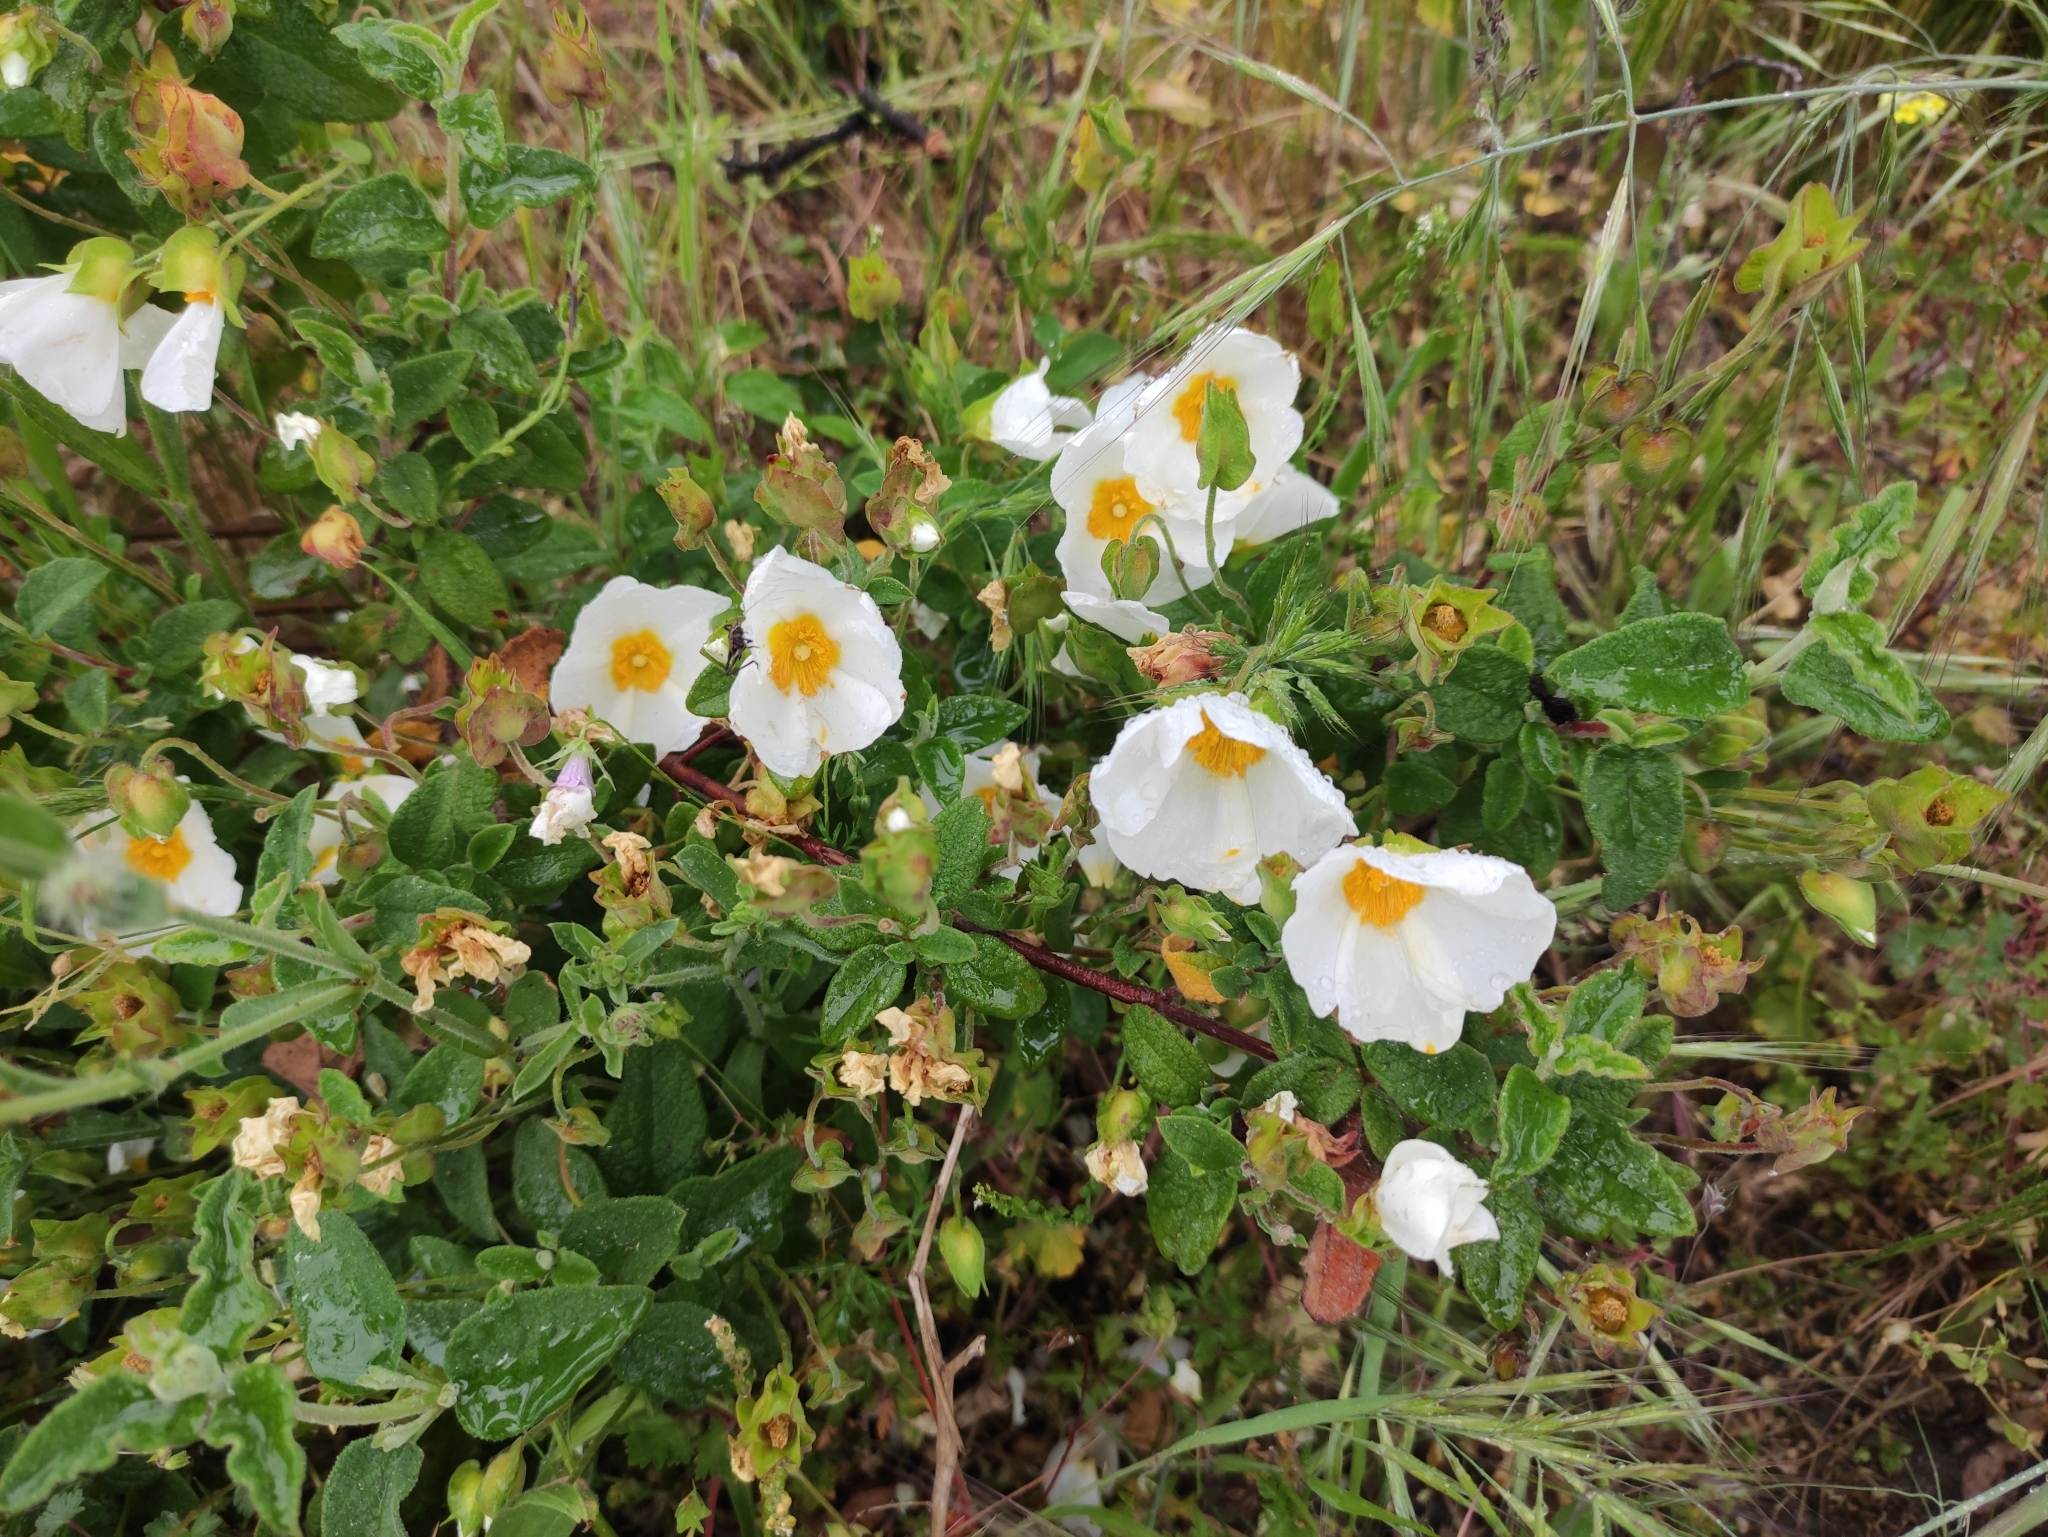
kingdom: Plantae
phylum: Tracheophyta
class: Magnoliopsida
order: Malvales
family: Cistaceae
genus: Cistus
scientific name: Cistus salviifolius
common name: Salvia cistus
